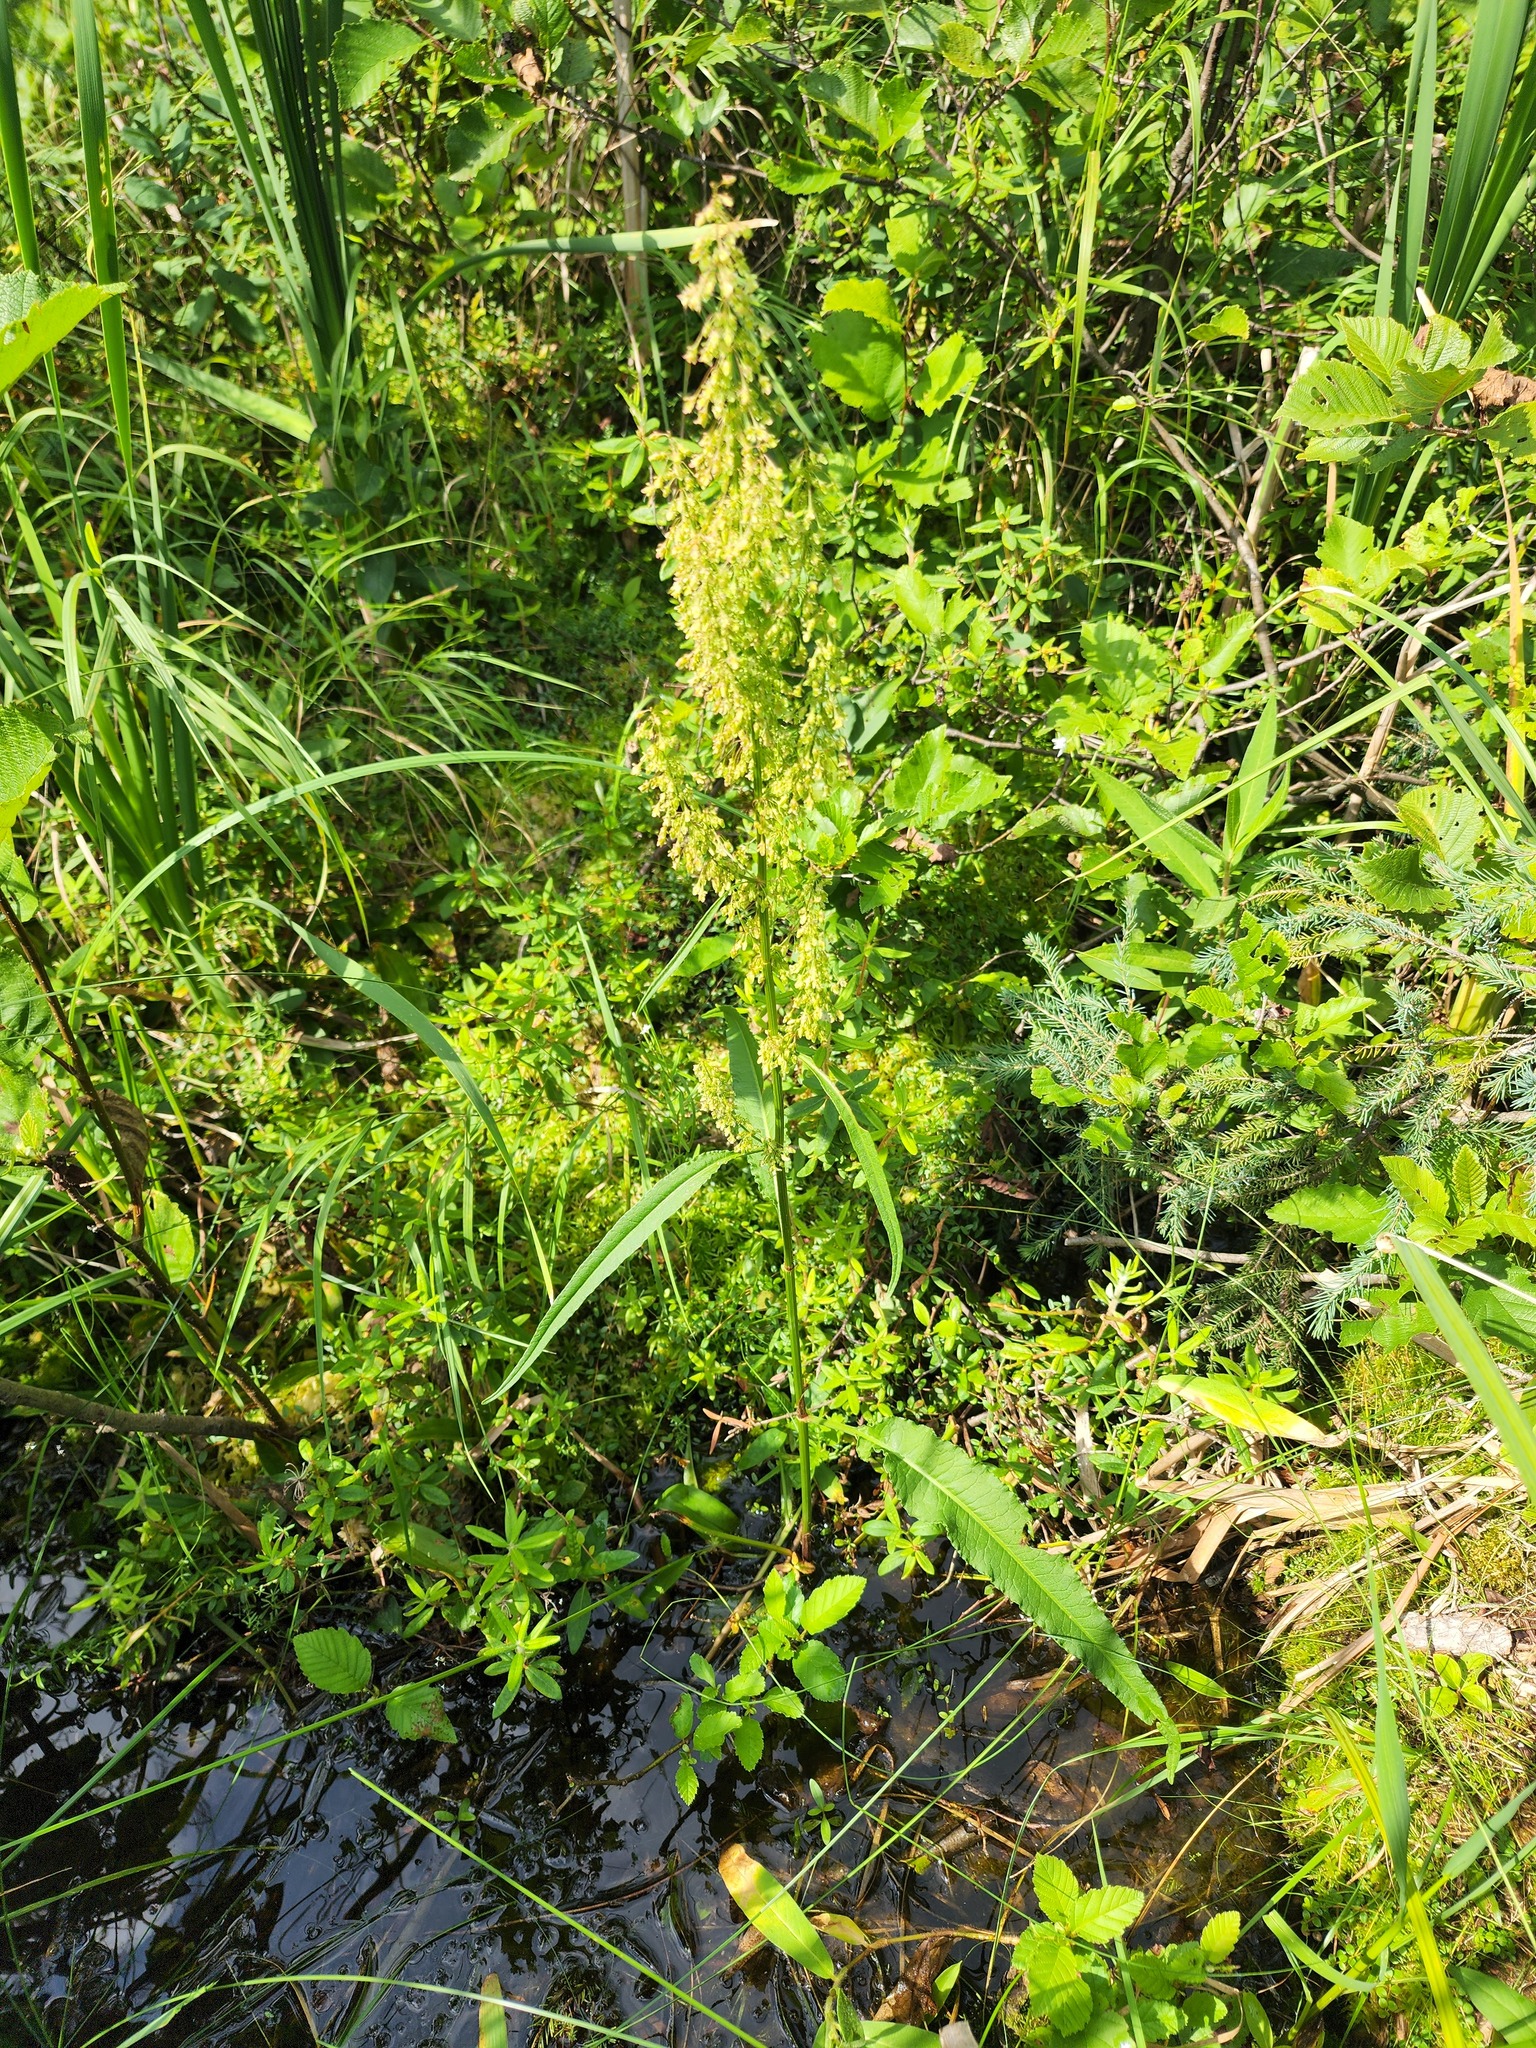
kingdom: Plantae
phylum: Tracheophyta
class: Magnoliopsida
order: Caryophyllales
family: Polygonaceae
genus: Rumex
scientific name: Rumex britannica
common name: British dock
